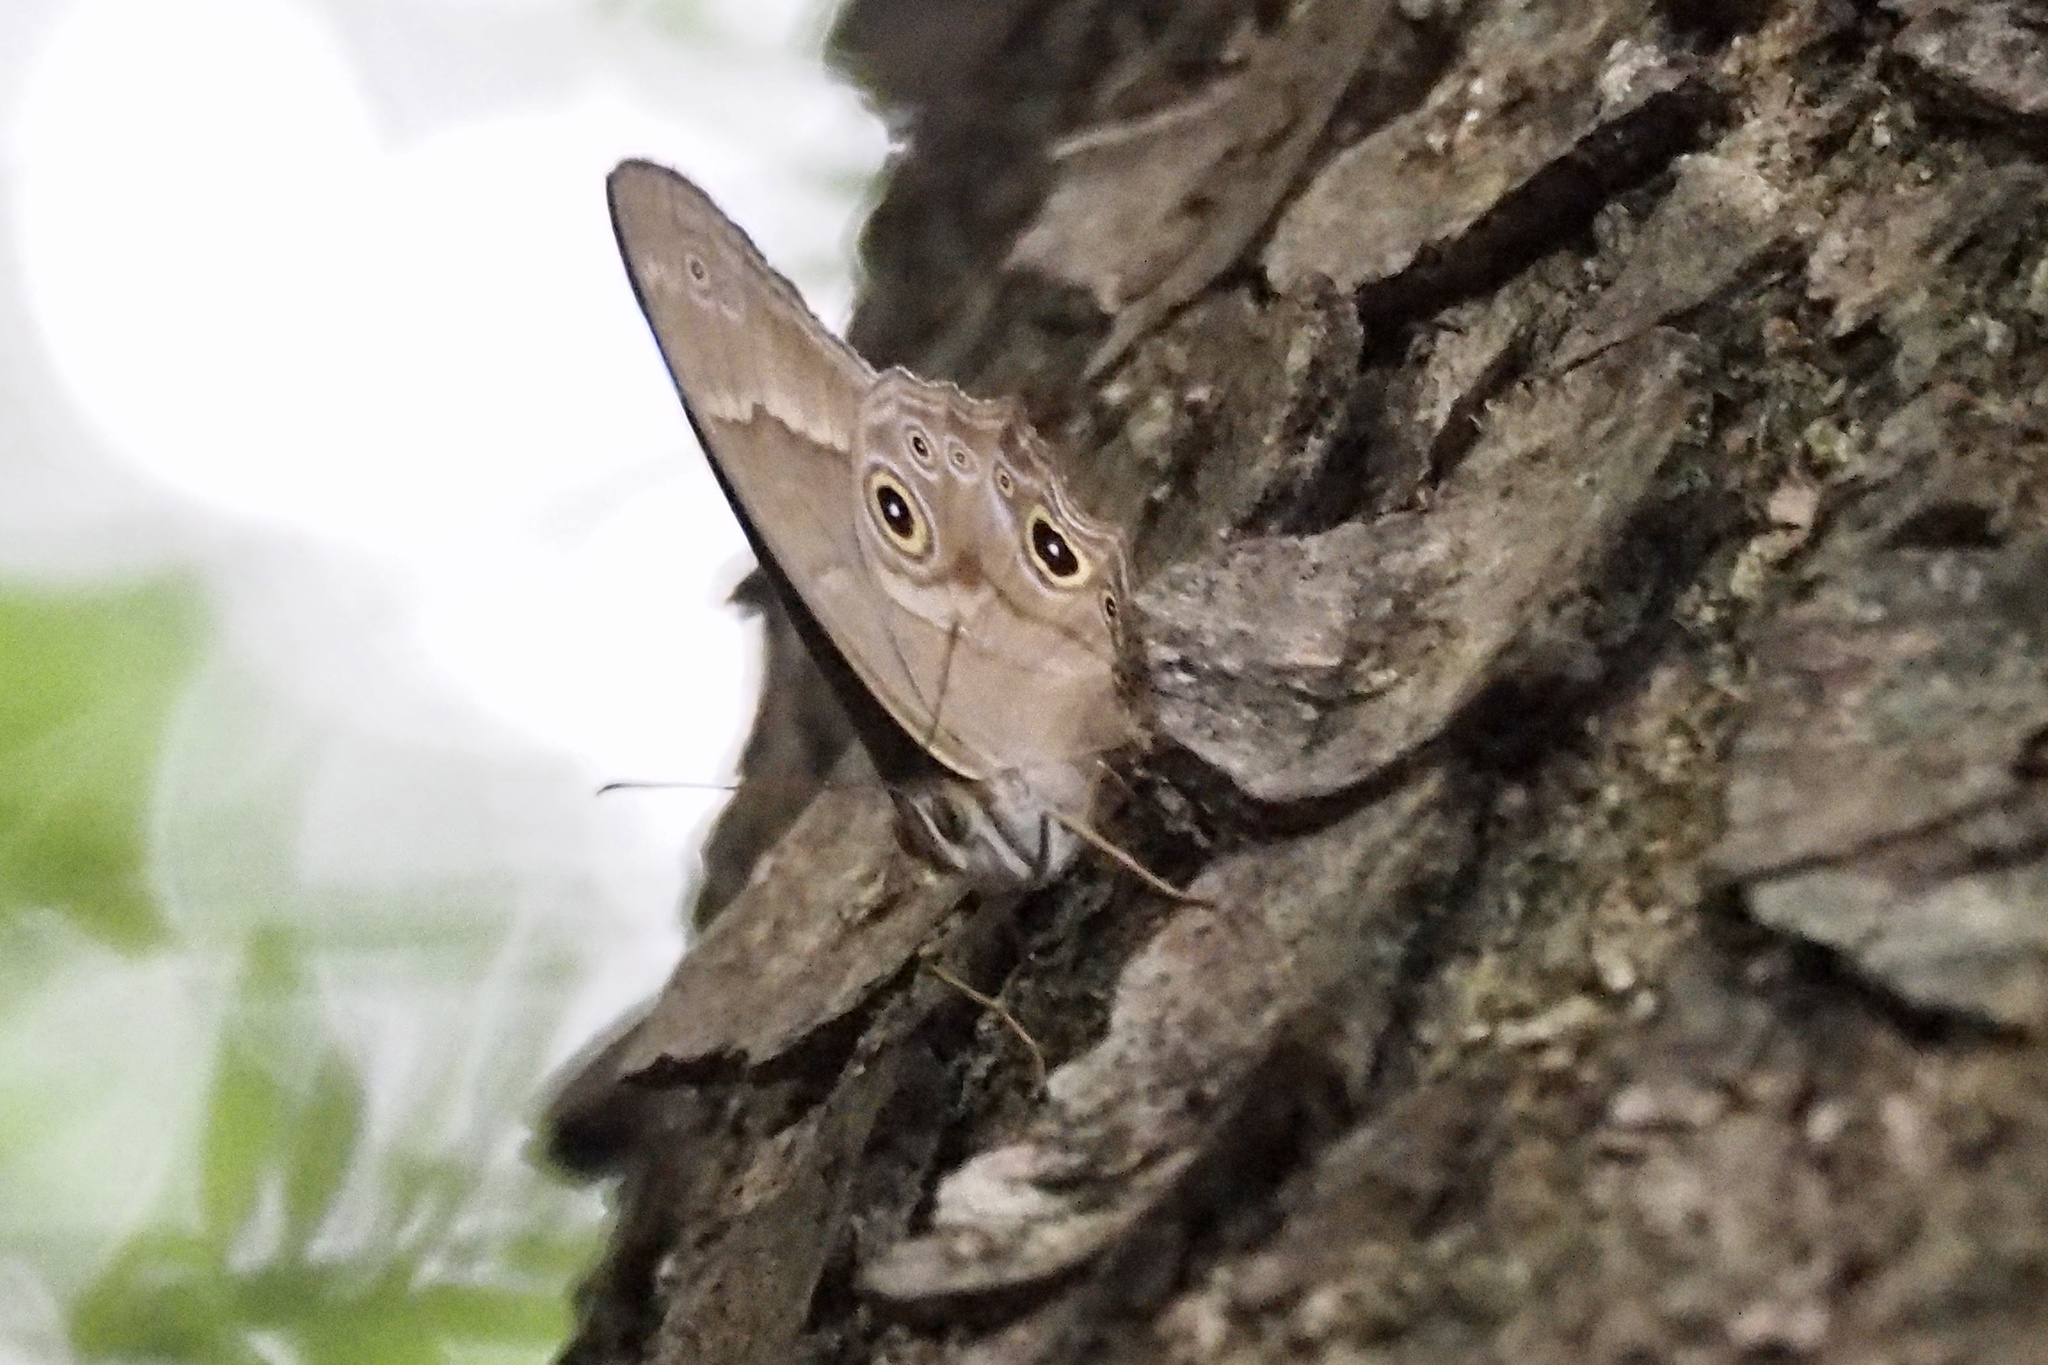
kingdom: Animalia
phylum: Arthropoda
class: Insecta
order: Lepidoptera
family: Nymphalidae
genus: Lethe
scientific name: Lethe sicelis
